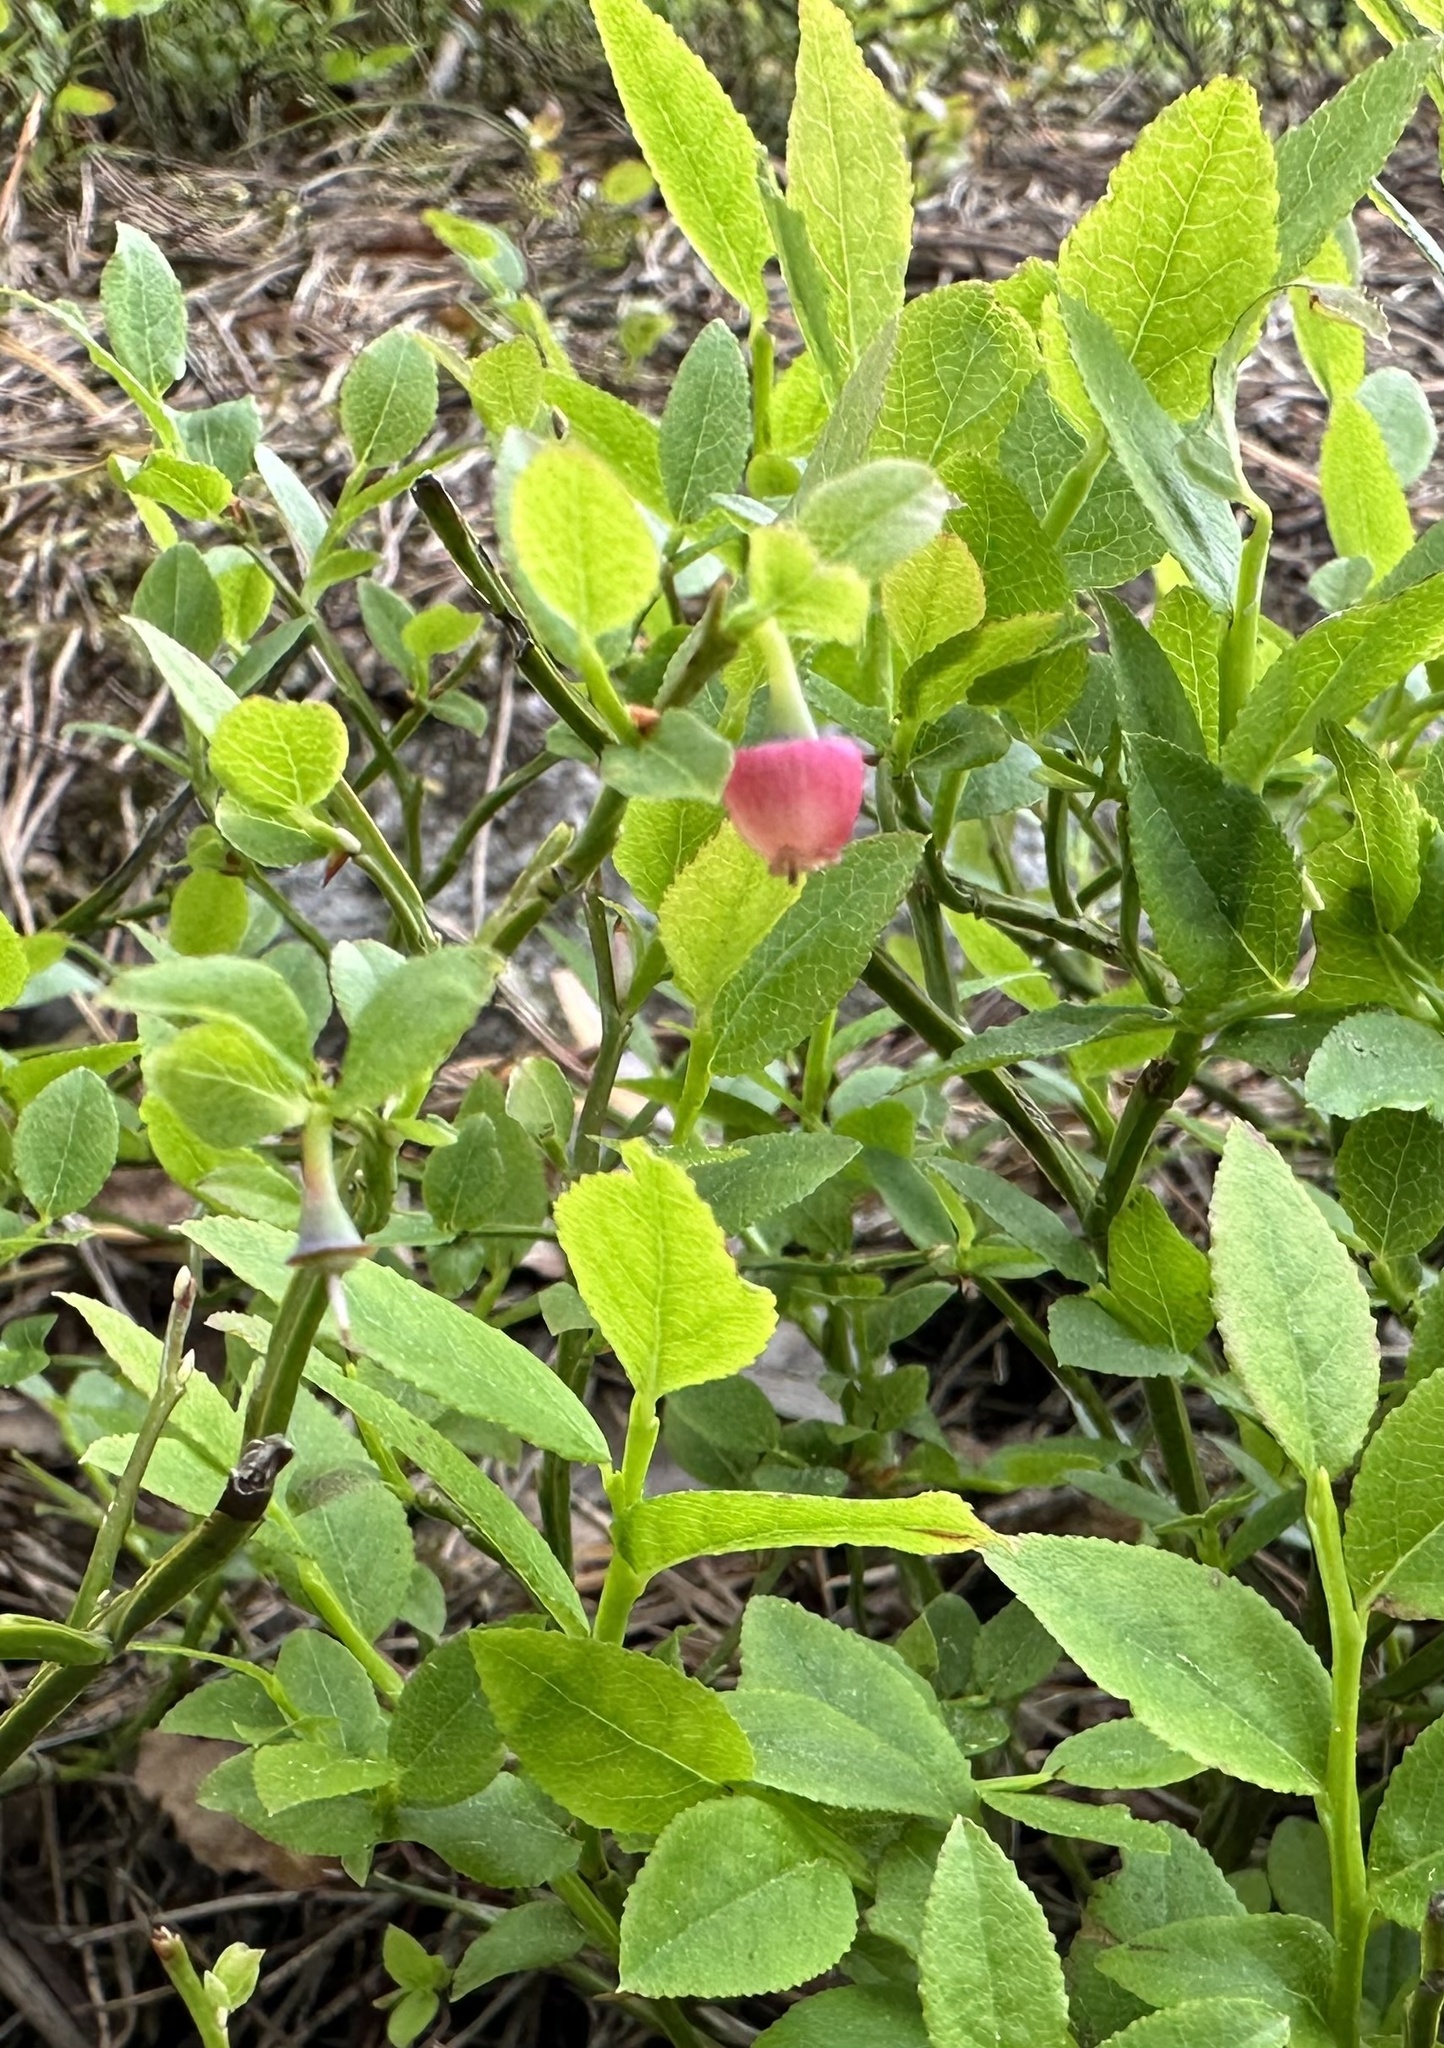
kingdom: Plantae
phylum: Tracheophyta
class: Magnoliopsida
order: Ericales
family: Ericaceae
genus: Vaccinium
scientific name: Vaccinium myrtillus
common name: Bilberry
